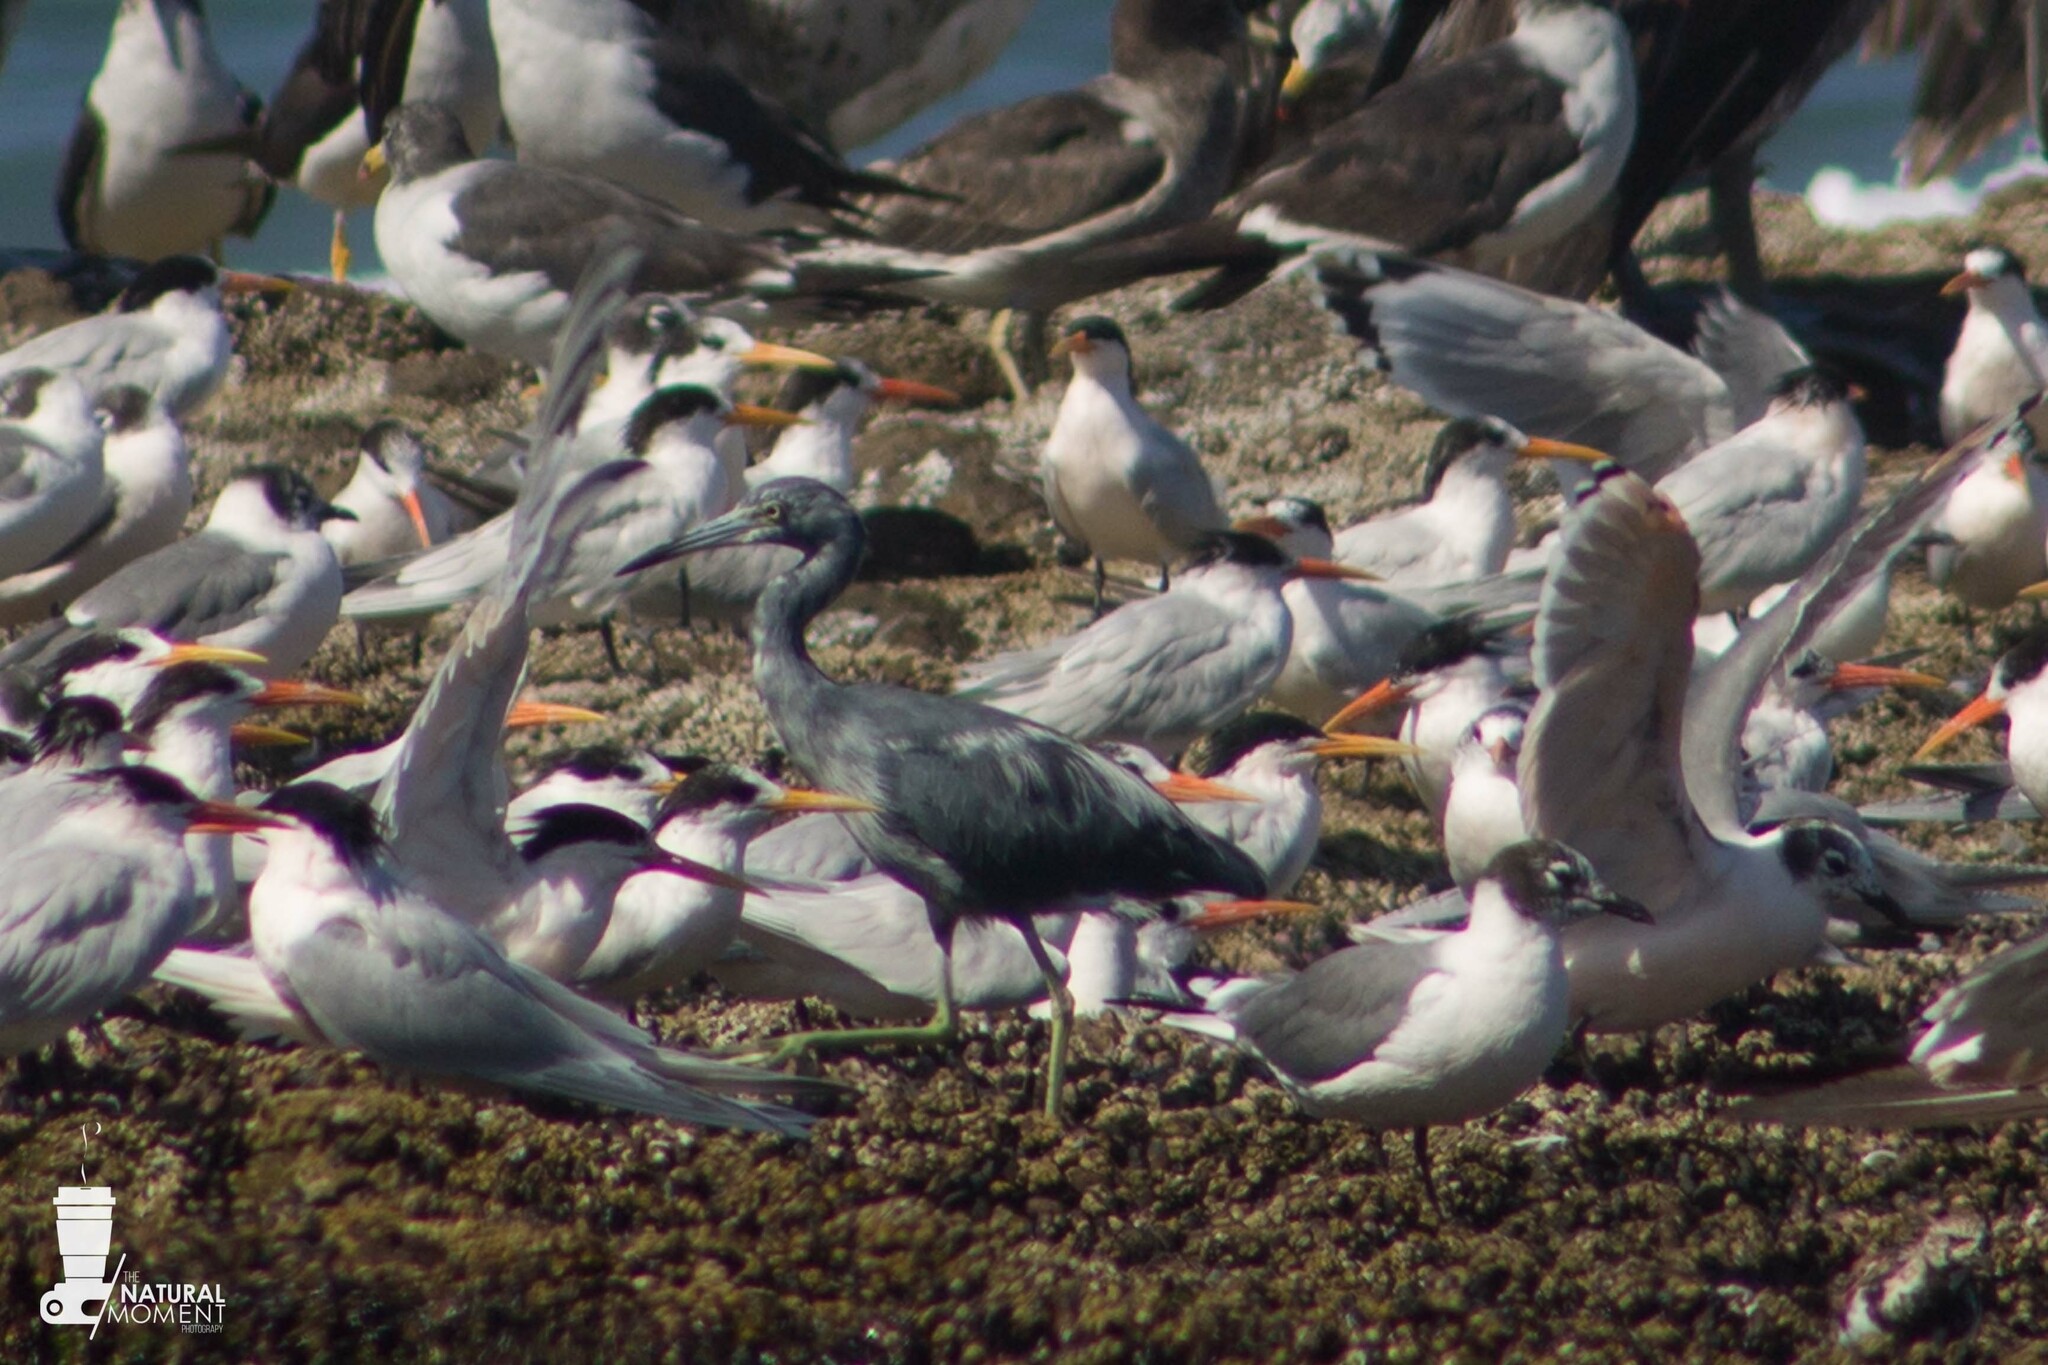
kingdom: Animalia
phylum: Chordata
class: Aves
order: Pelecaniformes
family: Ardeidae
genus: Egretta
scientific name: Egretta caerulea
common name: Little blue heron
